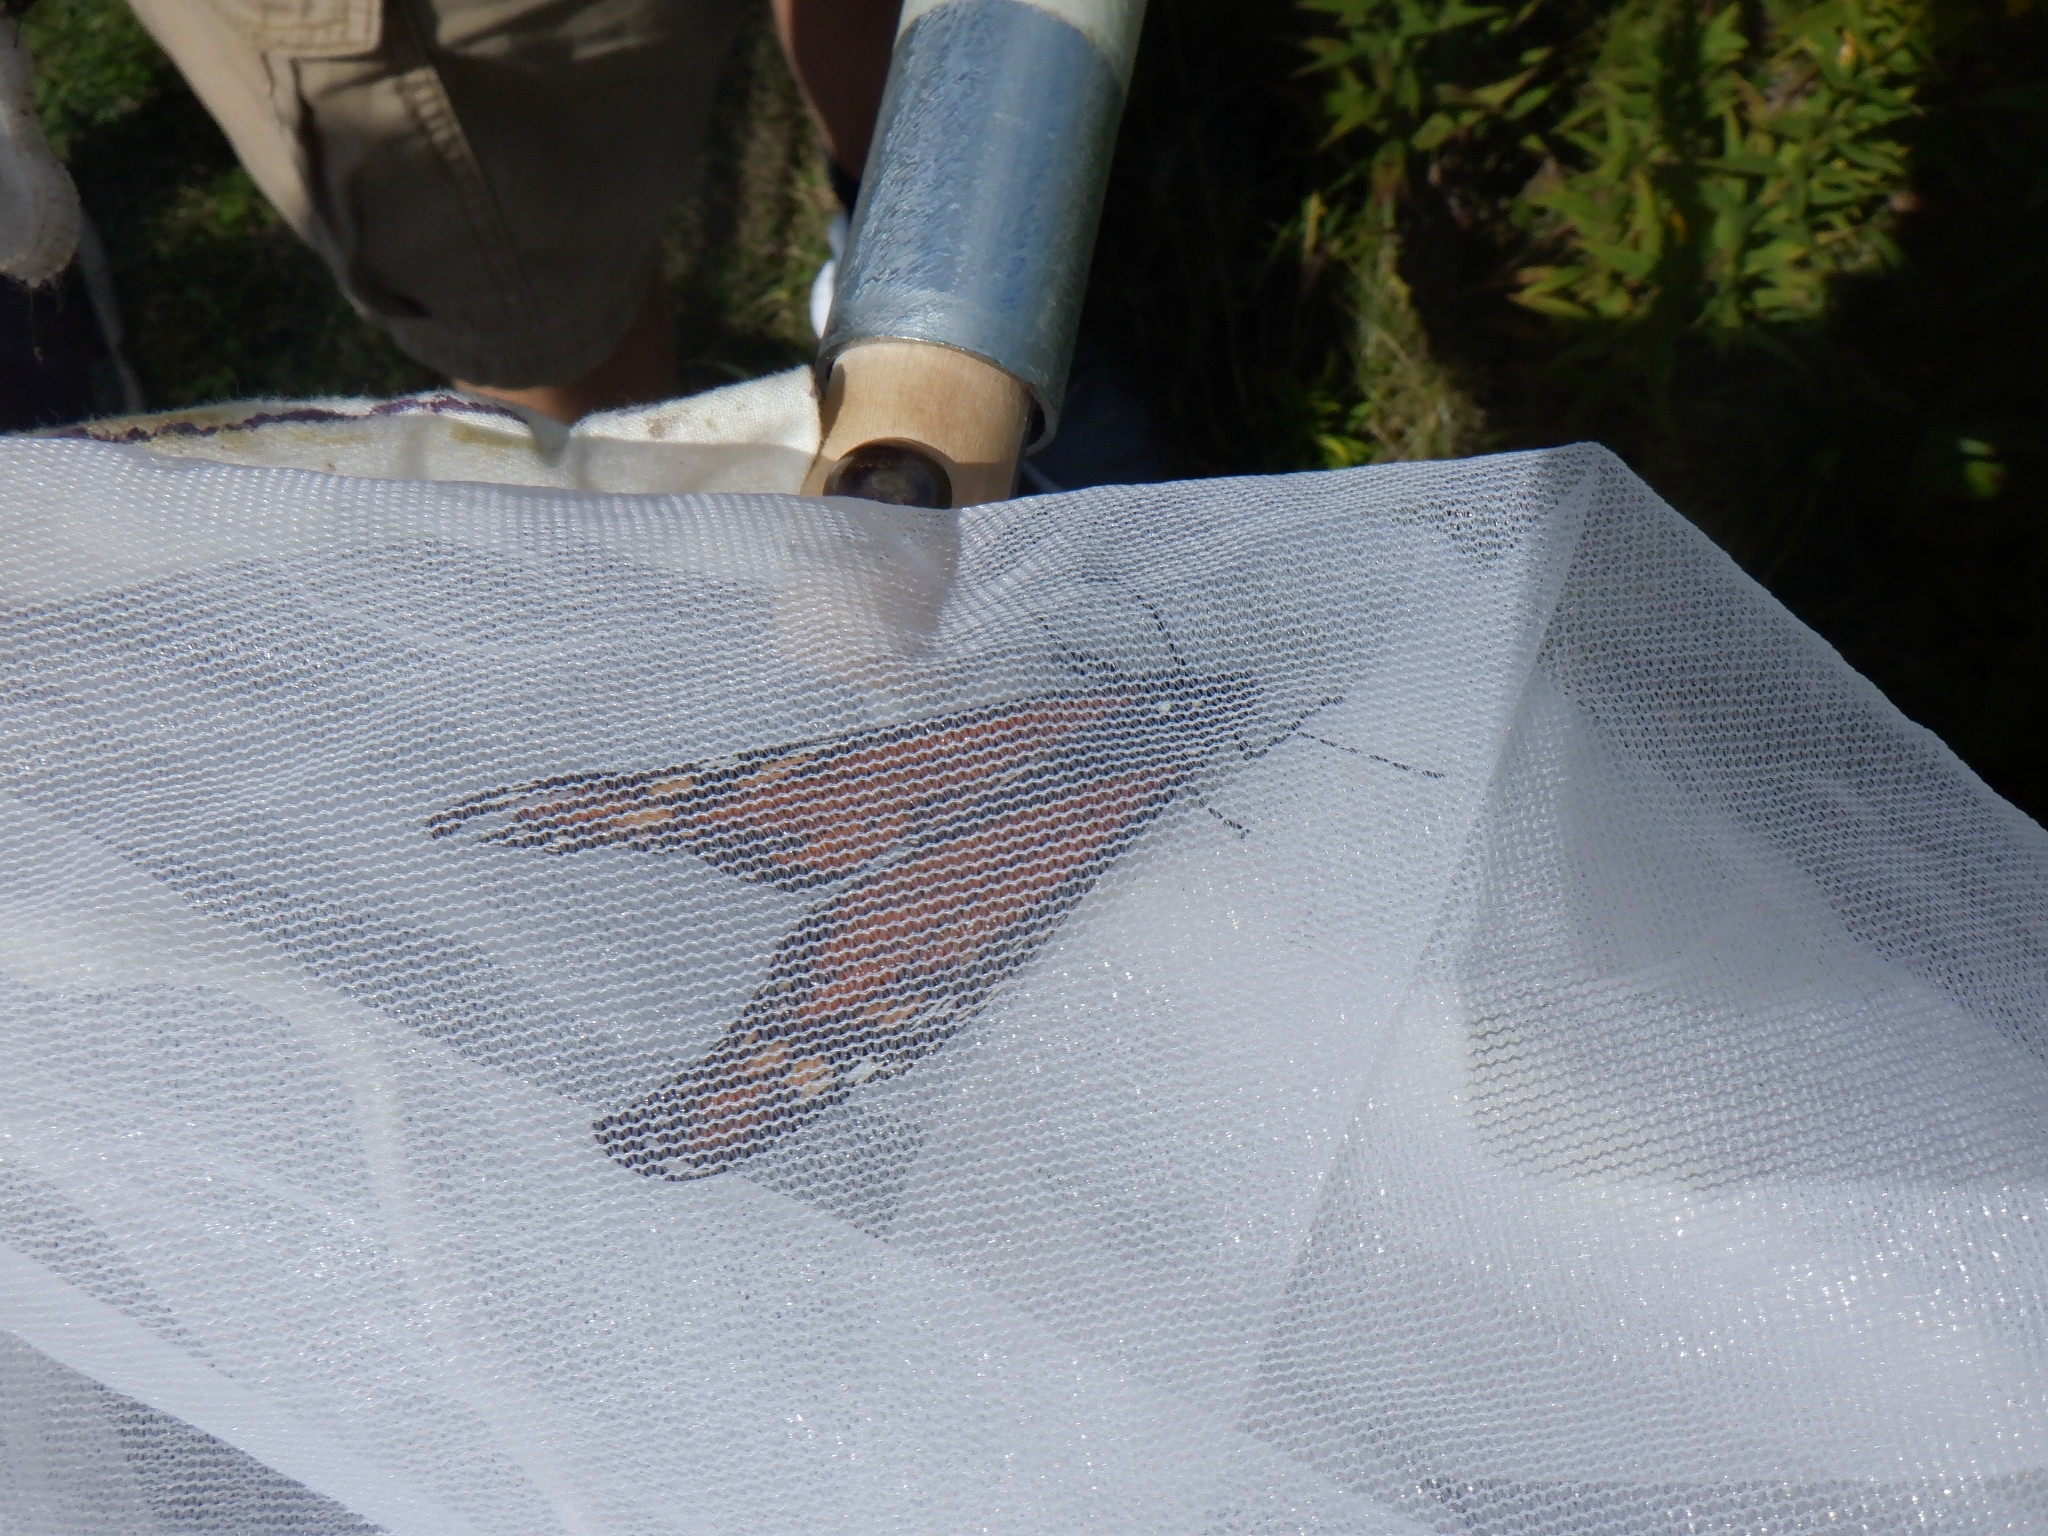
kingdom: Animalia
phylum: Arthropoda
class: Insecta
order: Lepidoptera
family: Nymphalidae
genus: Danaus
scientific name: Danaus plexippus
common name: Monarch
